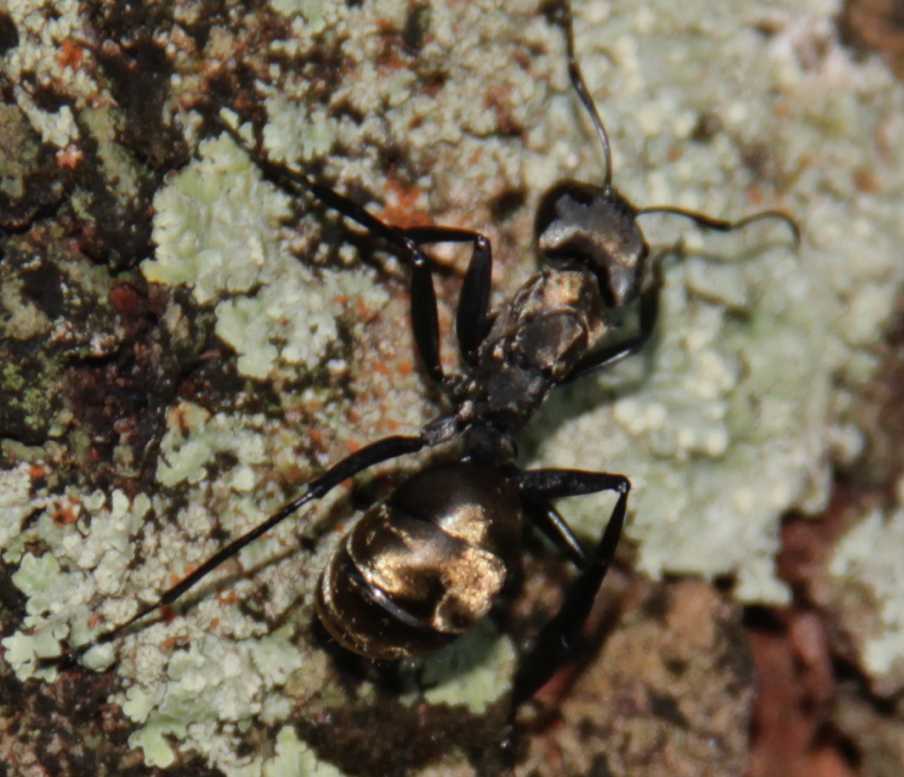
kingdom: Animalia
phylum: Arthropoda
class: Insecta
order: Hymenoptera
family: Formicidae
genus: Camponotus
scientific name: Camponotus sericeiventris
